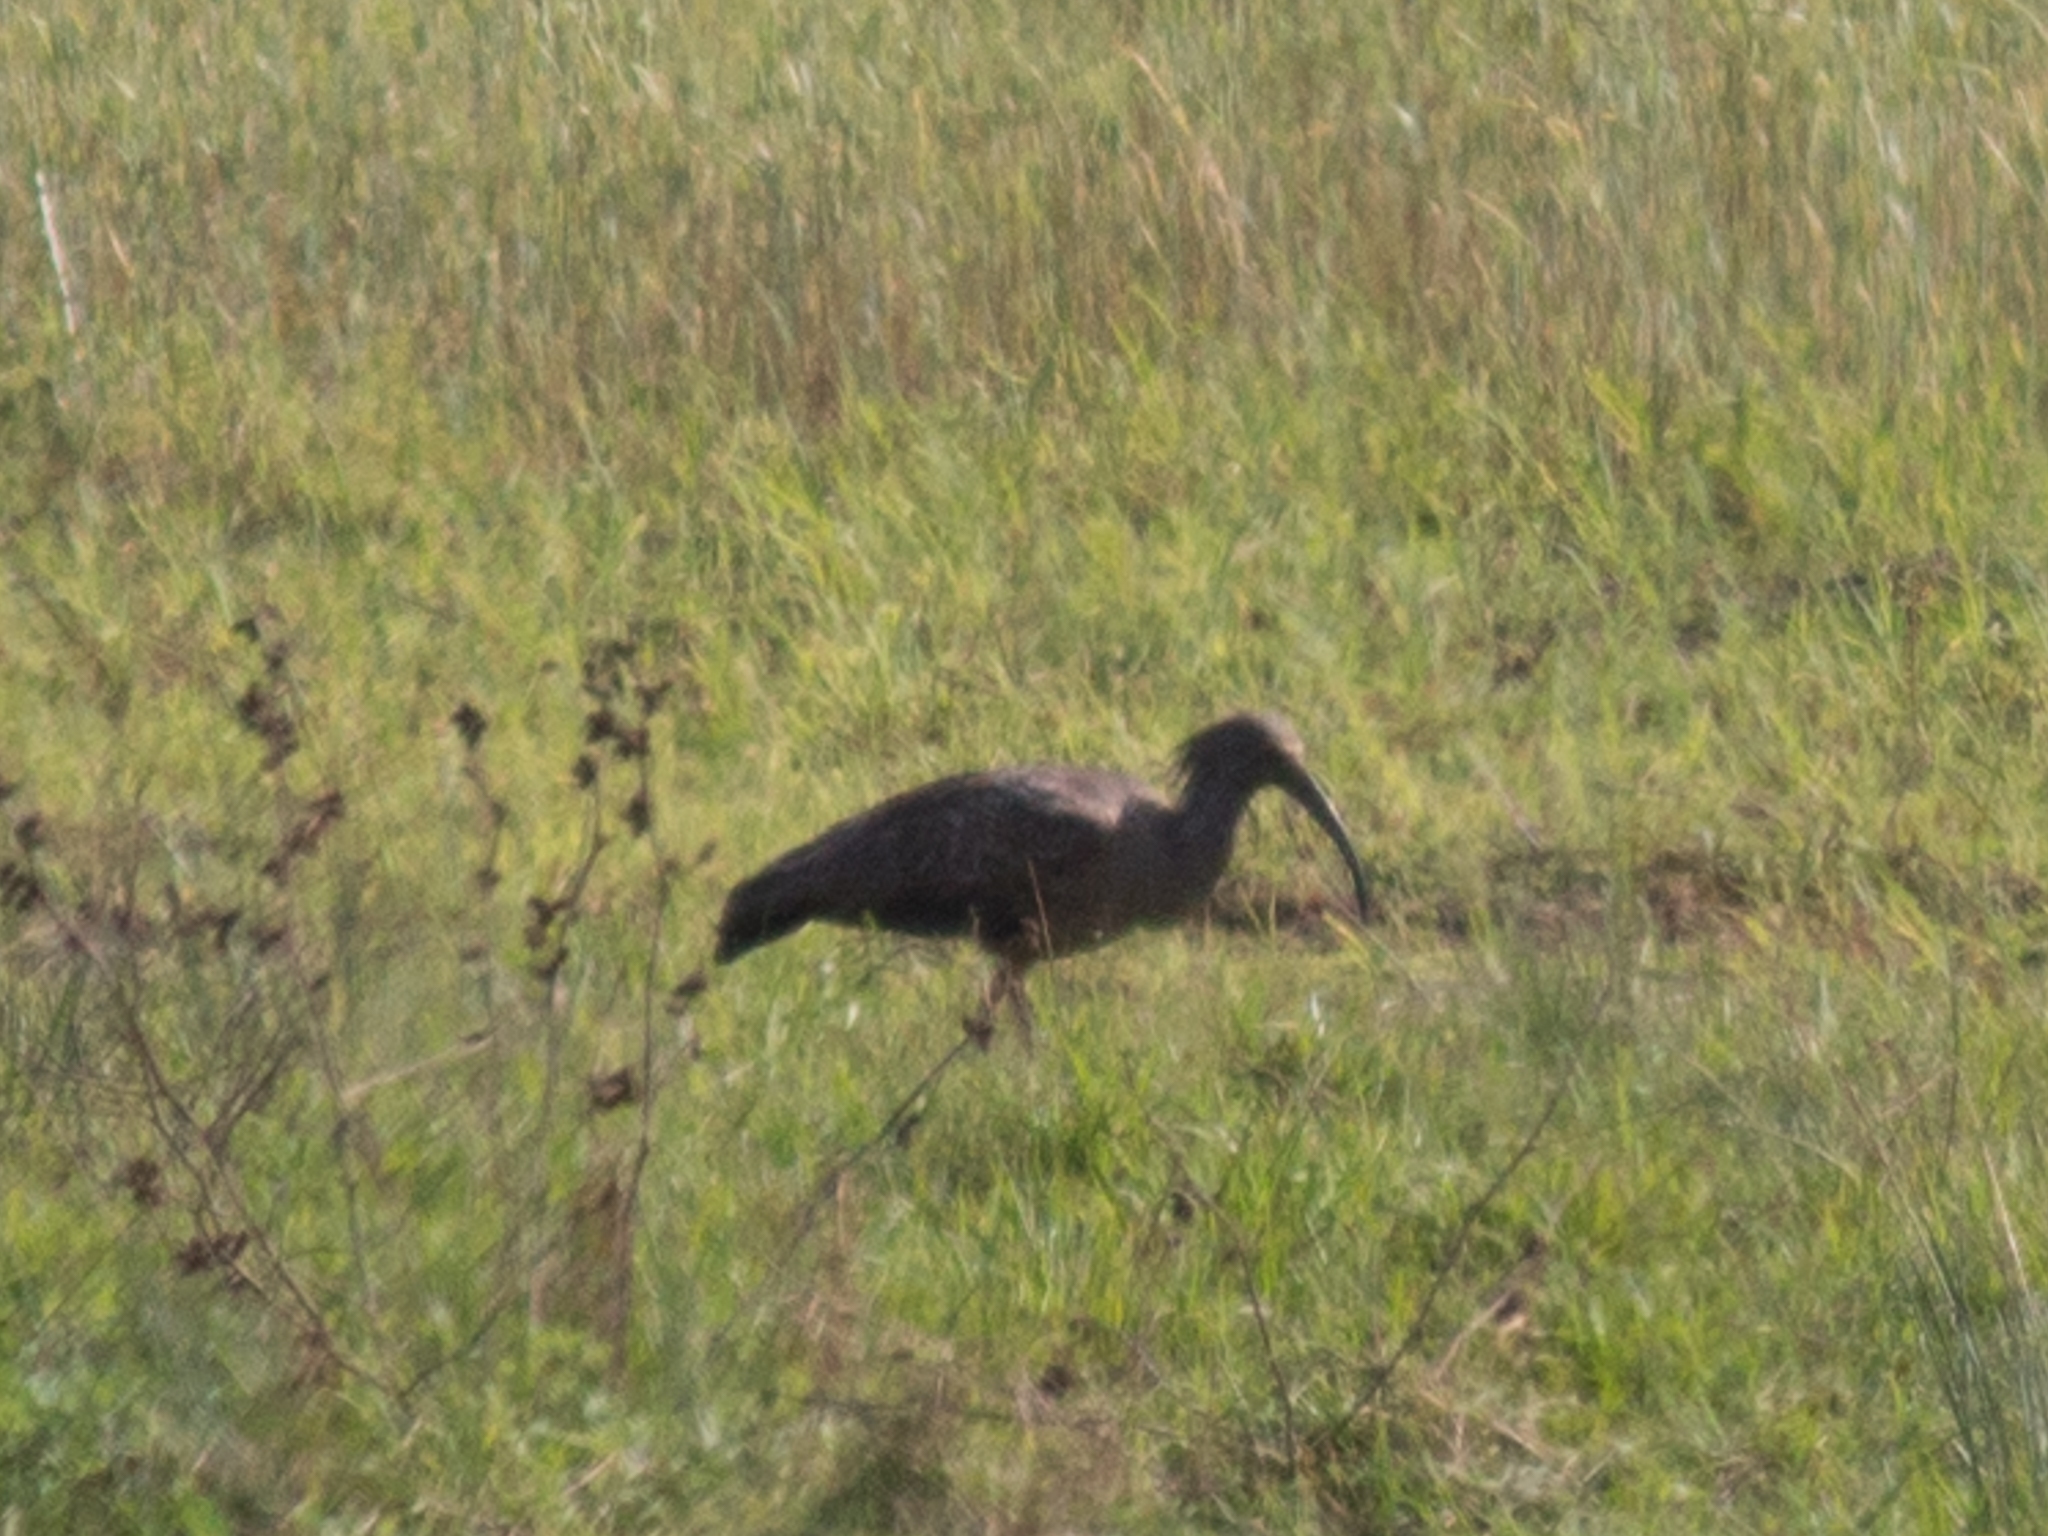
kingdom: Animalia
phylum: Chordata
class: Aves
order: Pelecaniformes
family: Threskiornithidae
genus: Theristicus
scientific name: Theristicus caerulescens
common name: Plumbeous ibis
